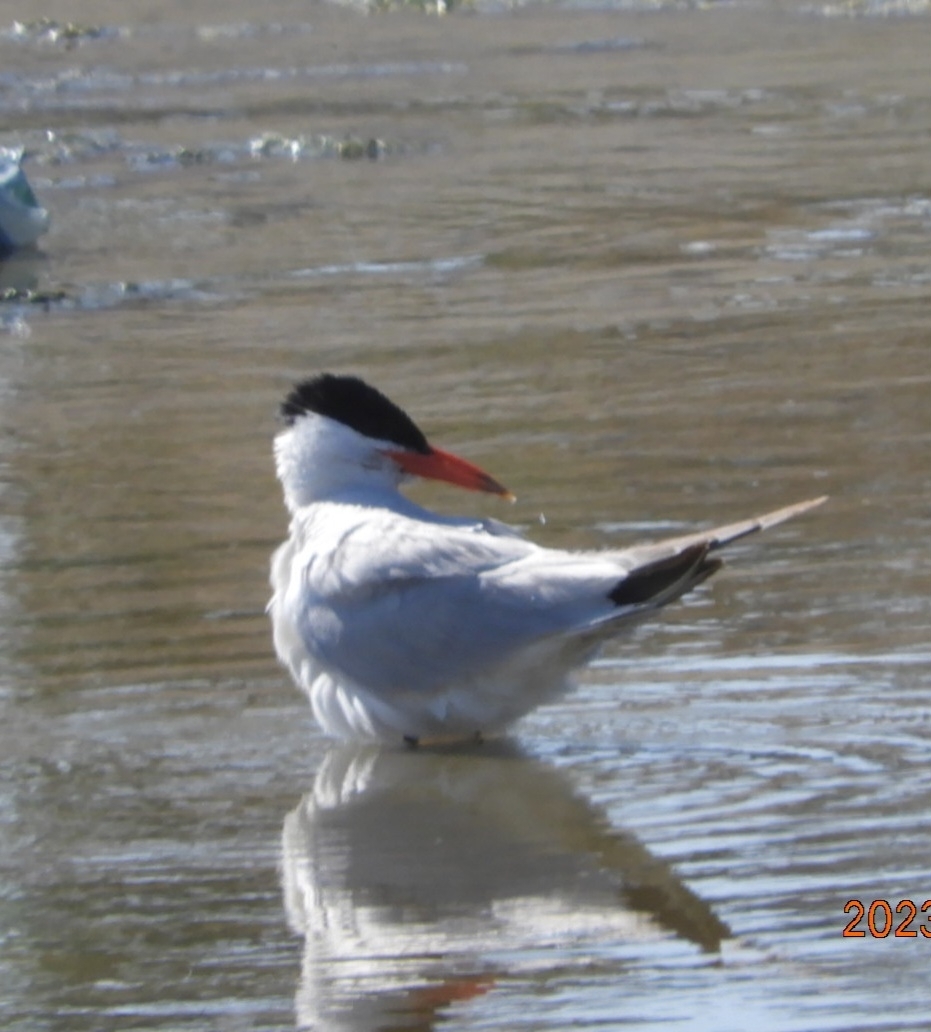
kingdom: Animalia
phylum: Chordata
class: Aves
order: Charadriiformes
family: Laridae
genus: Hydroprogne
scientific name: Hydroprogne caspia
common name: Caspian tern
